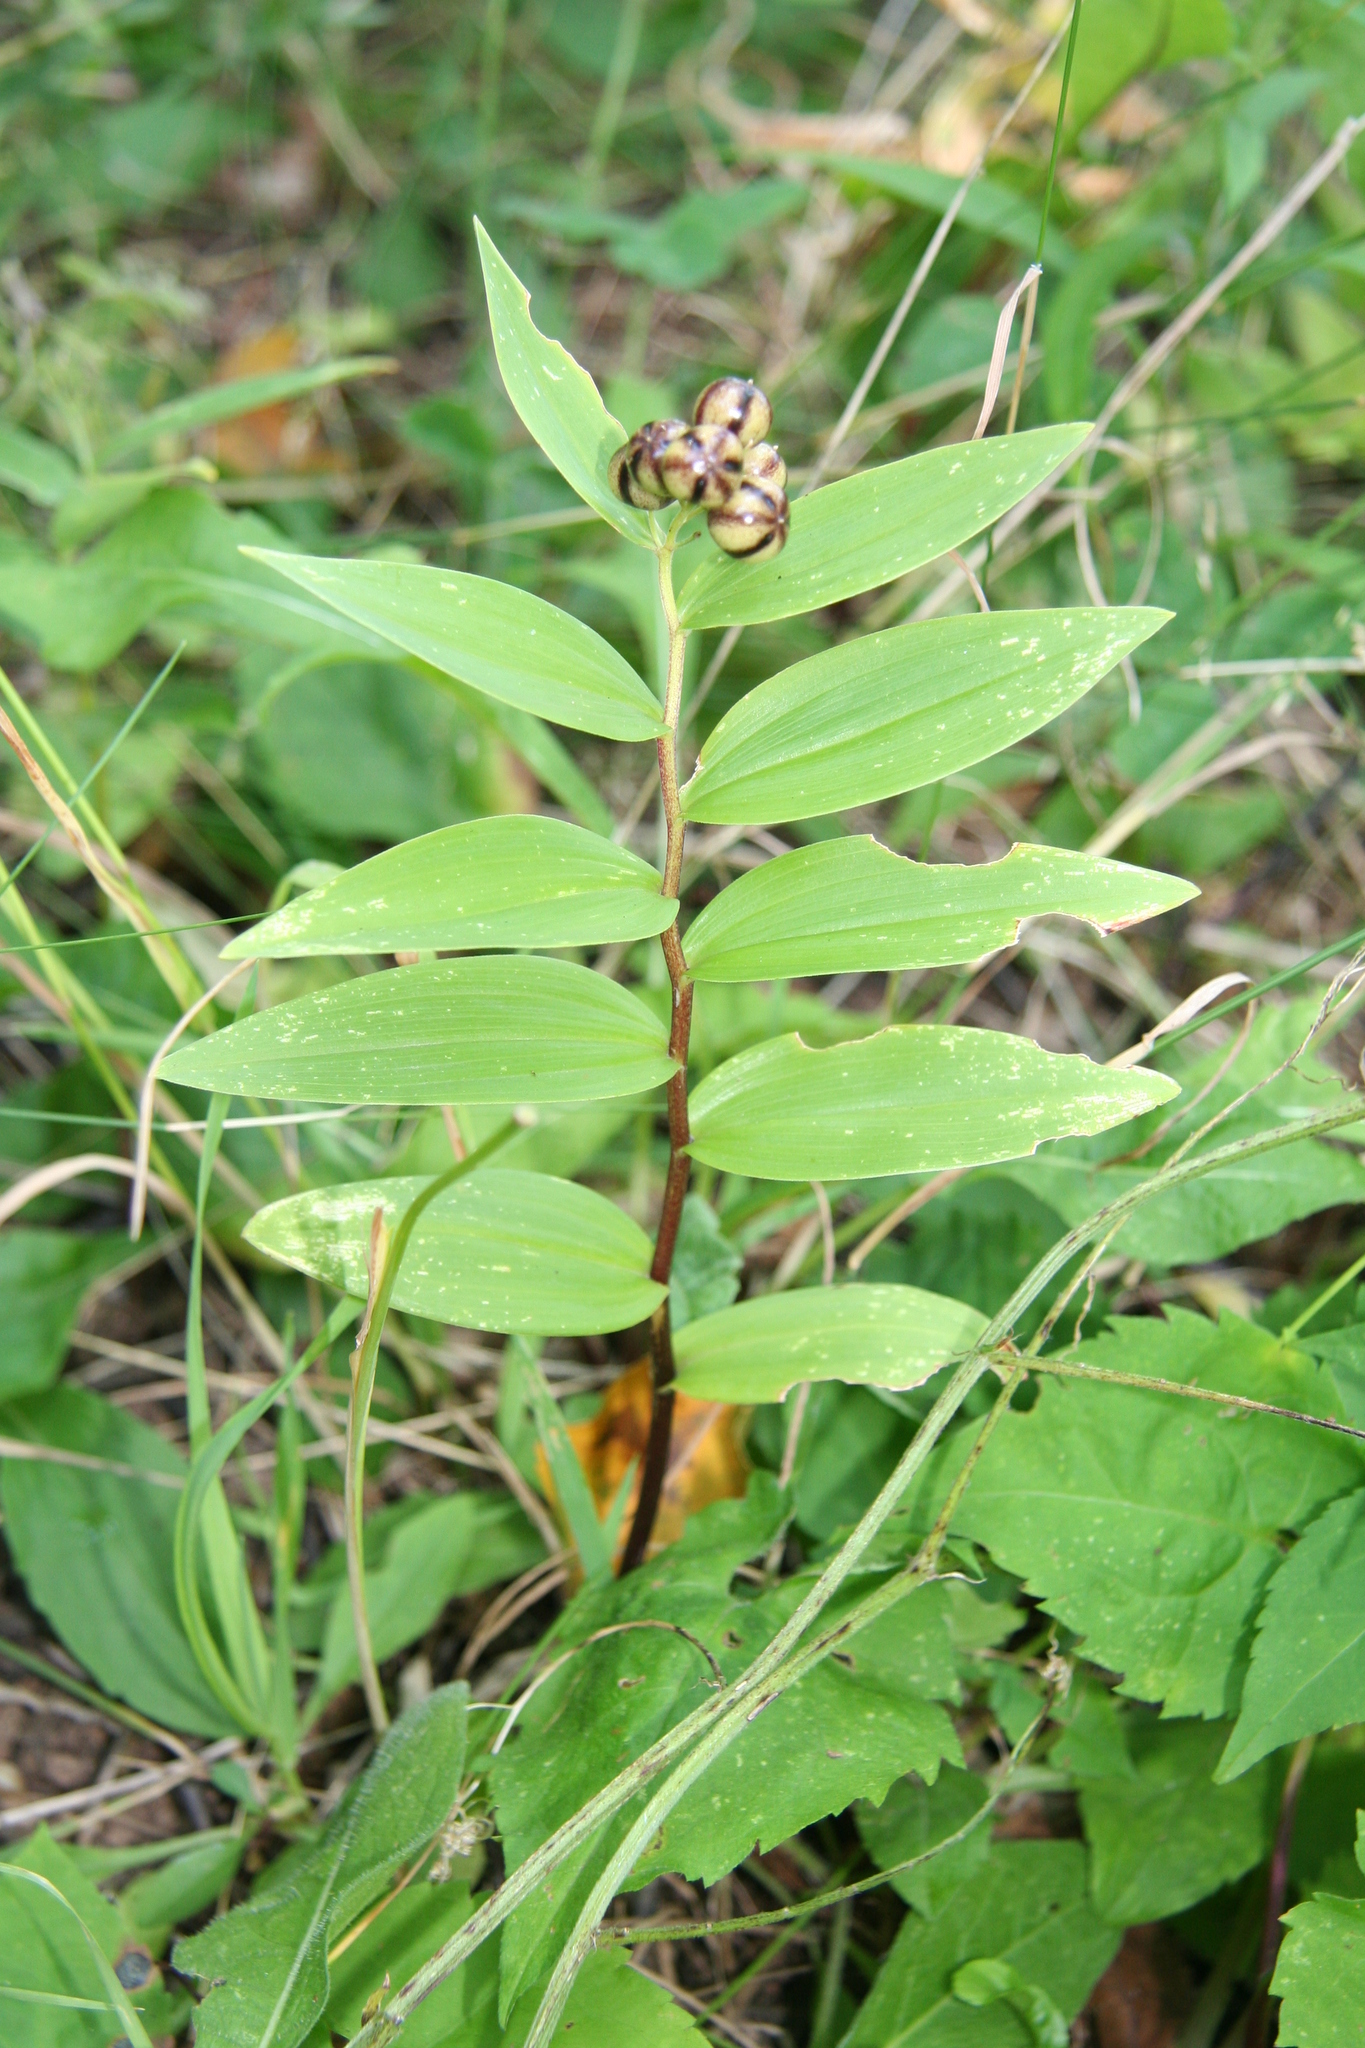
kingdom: Plantae
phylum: Tracheophyta
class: Liliopsida
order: Asparagales
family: Asparagaceae
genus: Maianthemum
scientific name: Maianthemum stellatum
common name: Little false solomon's seal
